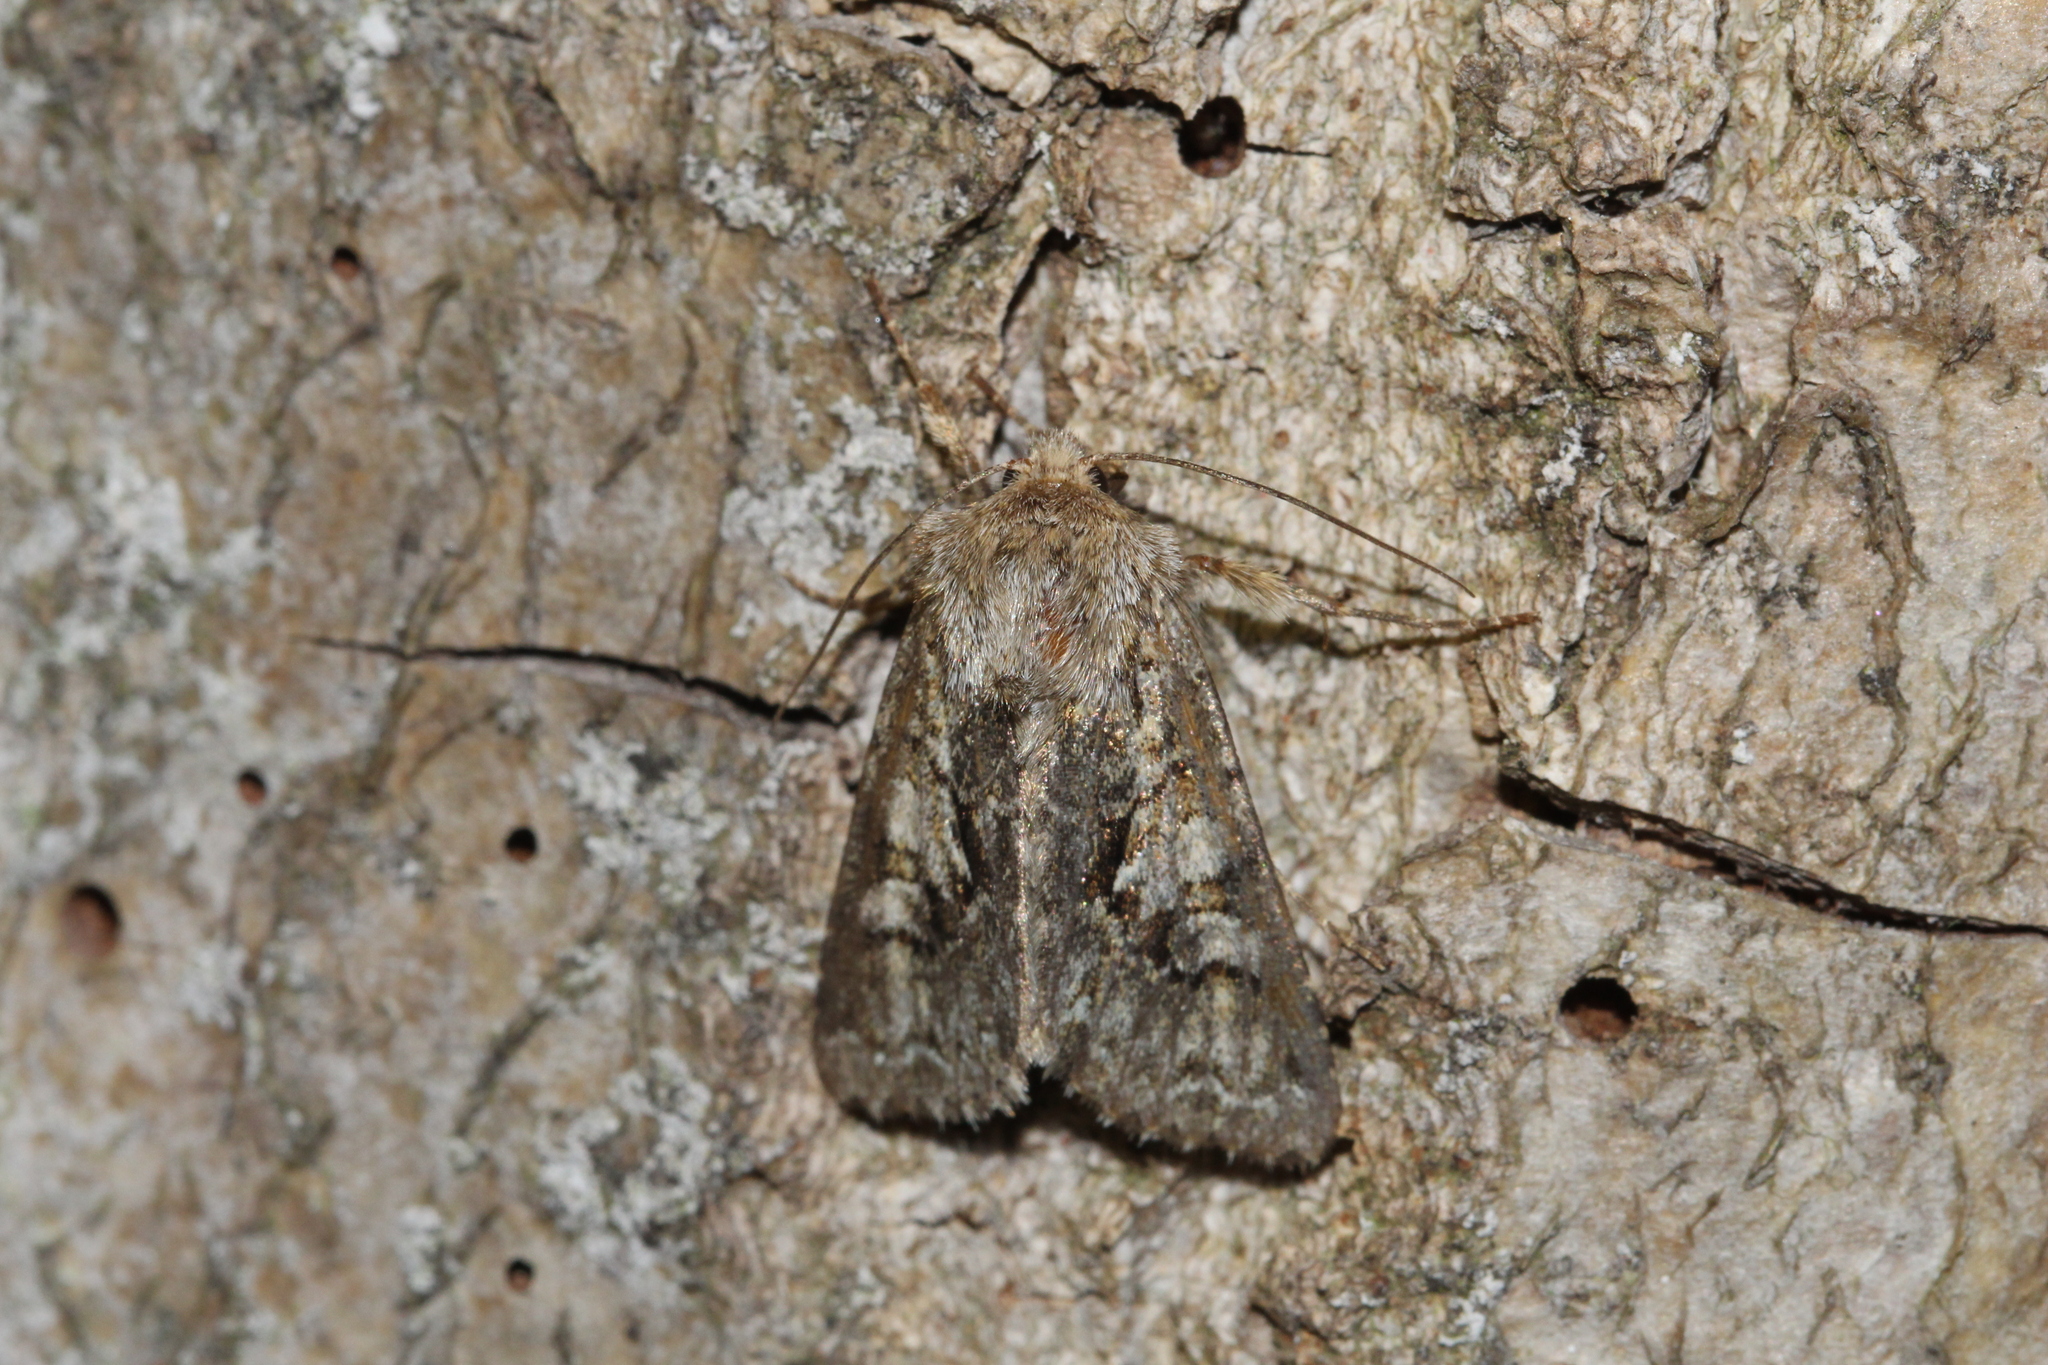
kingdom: Animalia
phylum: Arthropoda
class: Insecta
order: Lepidoptera
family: Noctuidae
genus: Hada
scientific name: Hada plebeja
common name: Shears
